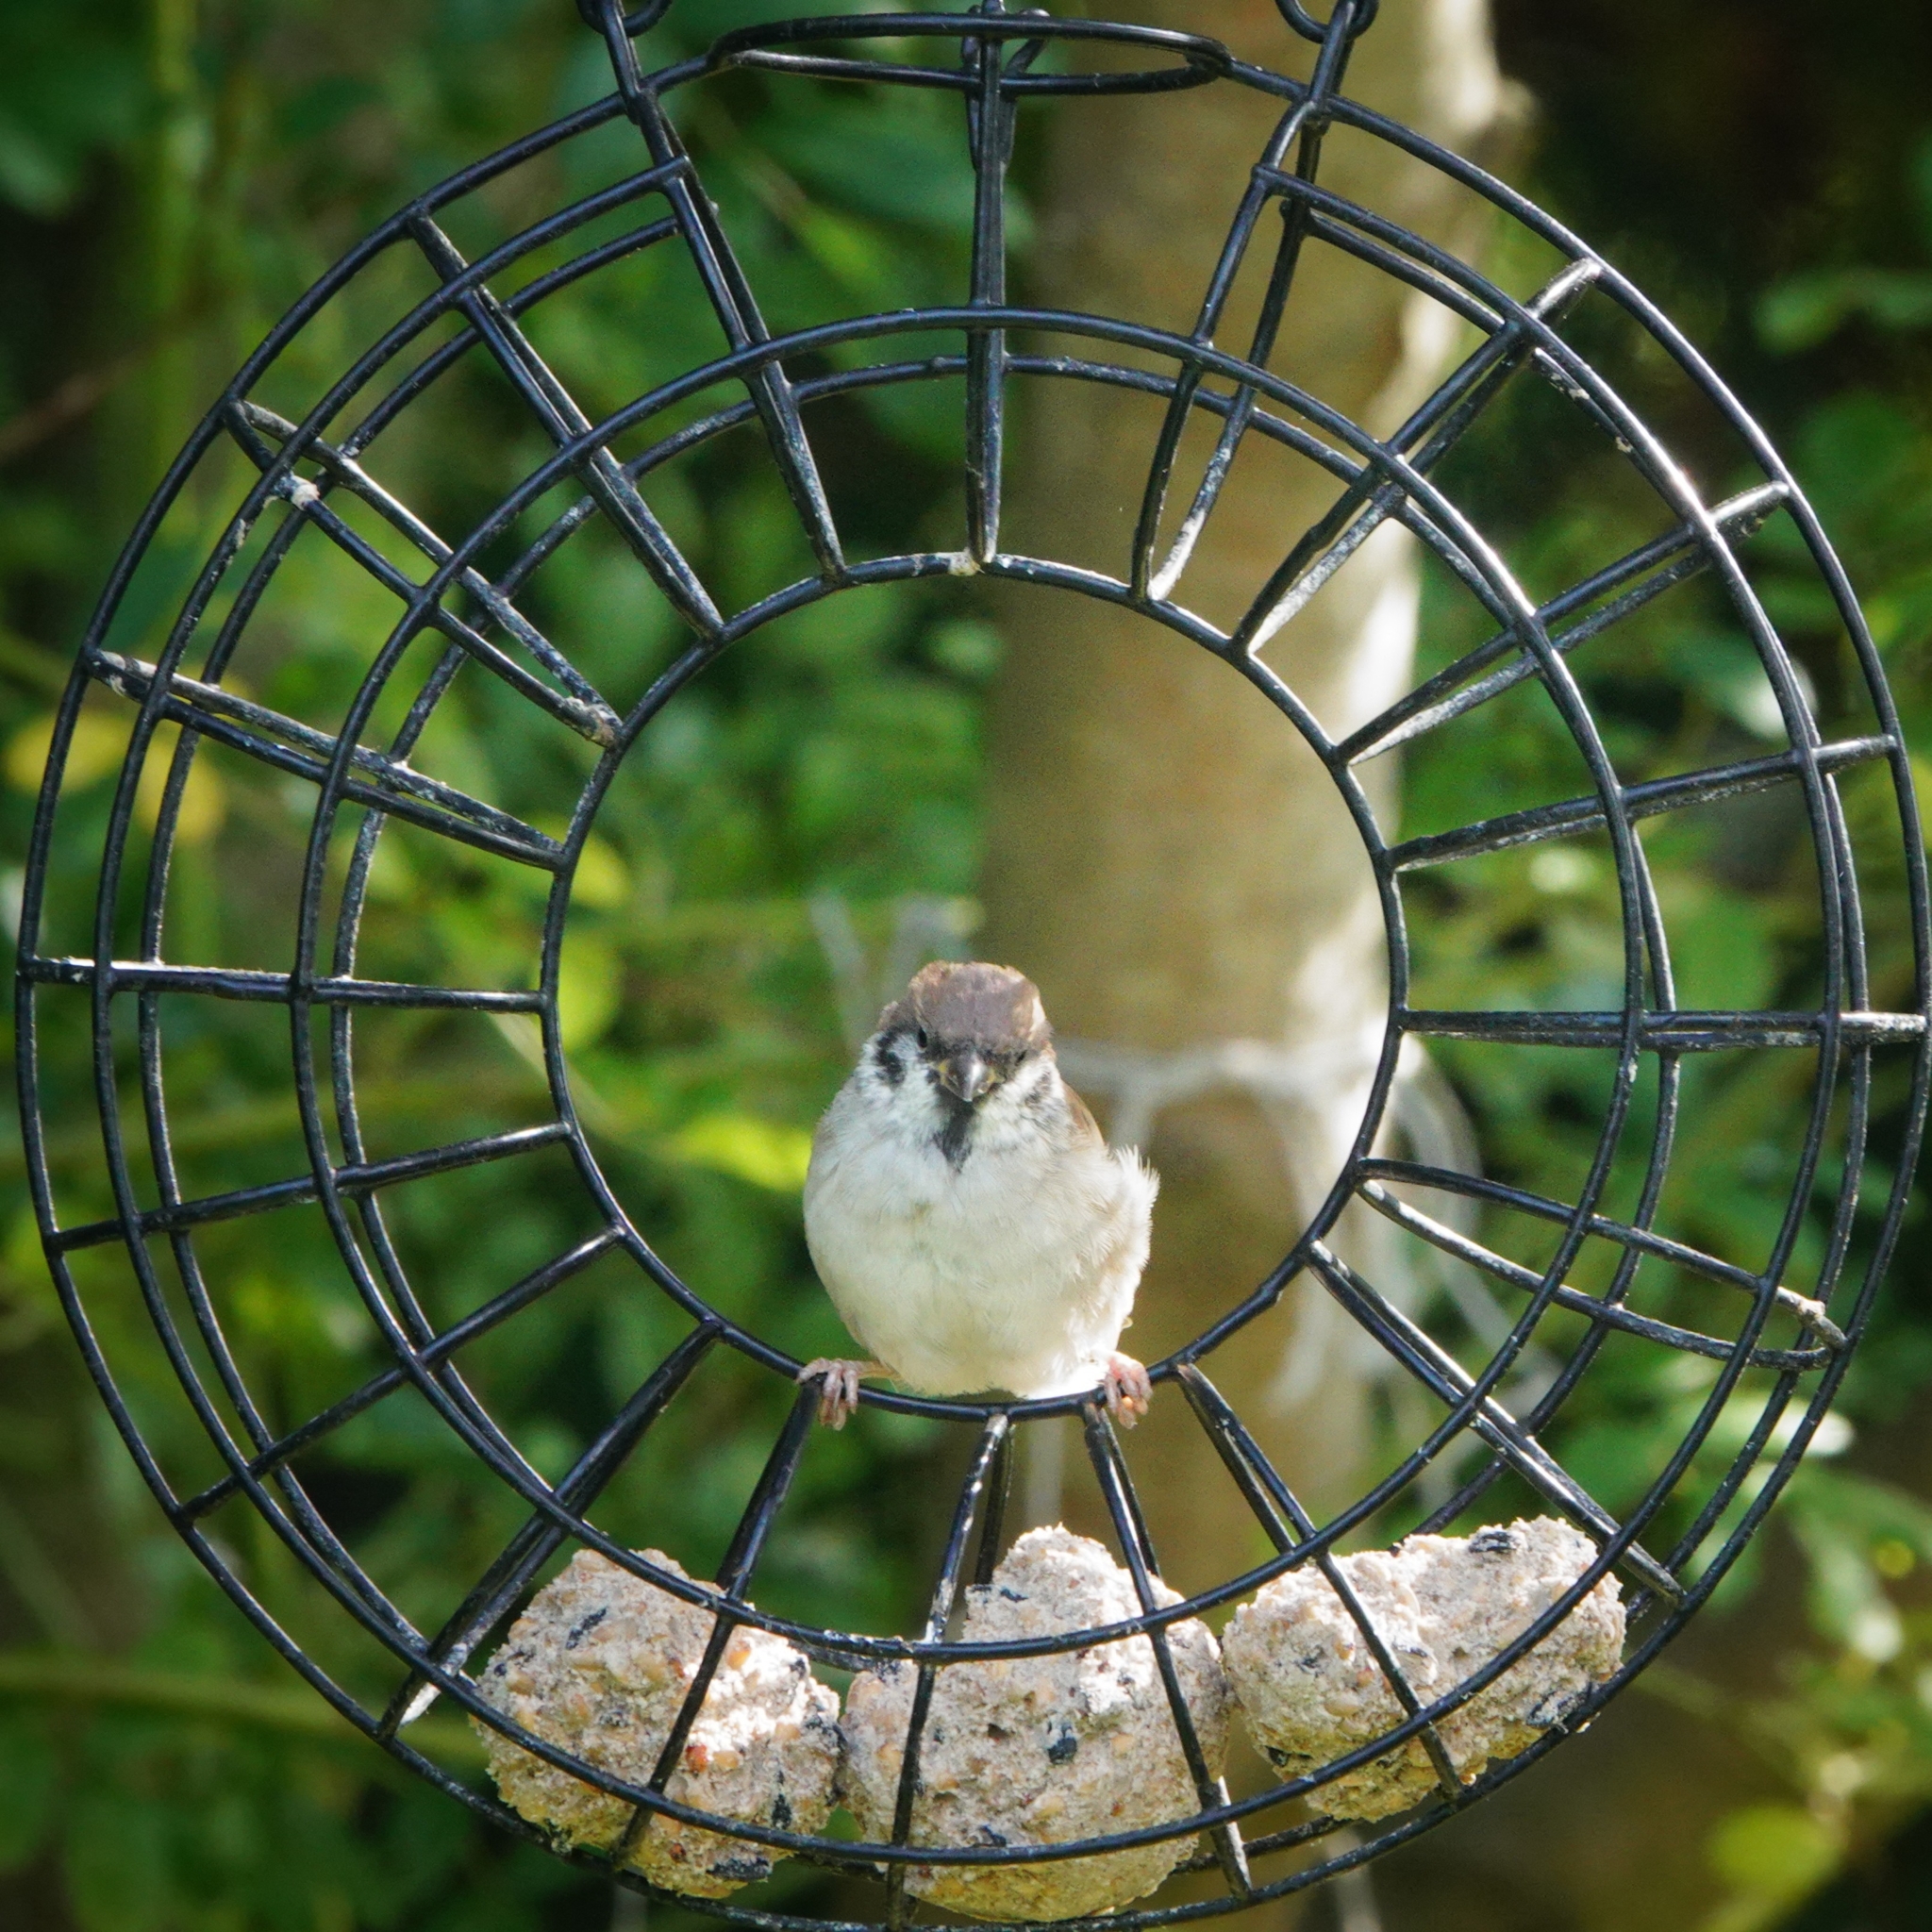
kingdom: Animalia
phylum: Chordata
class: Aves
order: Passeriformes
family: Passeridae
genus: Passer
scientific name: Passer montanus
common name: Eurasian tree sparrow
